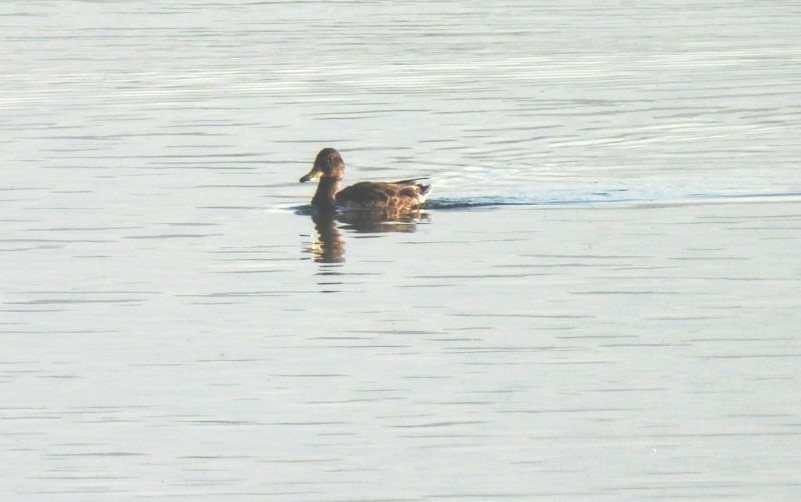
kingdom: Animalia
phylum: Chordata
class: Aves
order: Anseriformes
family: Anatidae
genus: Anas
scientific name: Anas platyrhynchos
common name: Mallard
